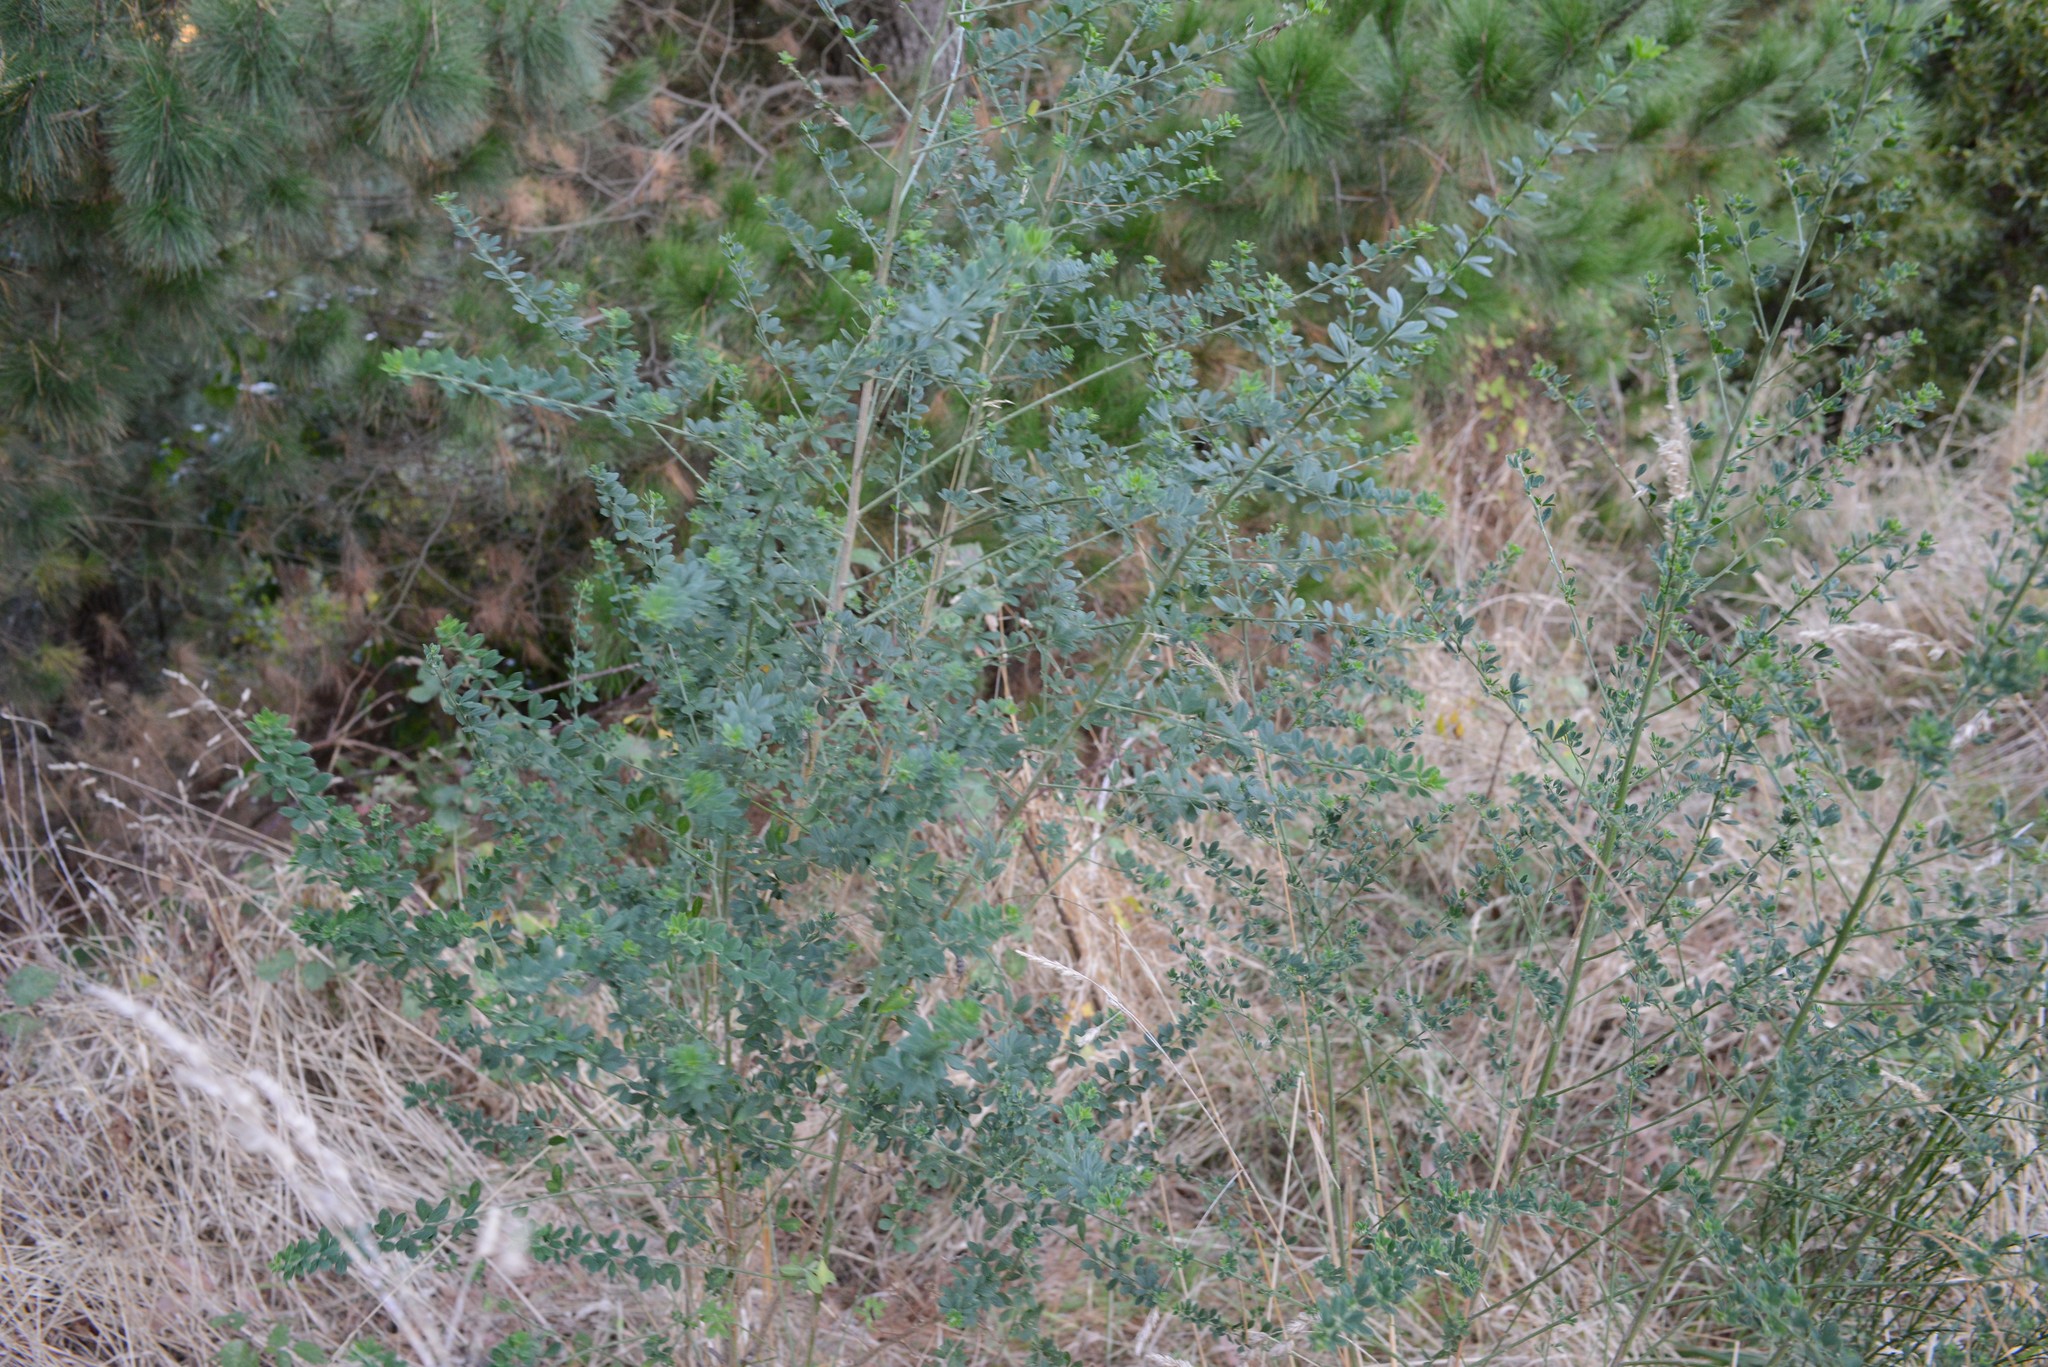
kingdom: Plantae
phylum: Tracheophyta
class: Magnoliopsida
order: Fabales
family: Fabaceae
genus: Chamaecytisus
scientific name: Chamaecytisus prolifer
